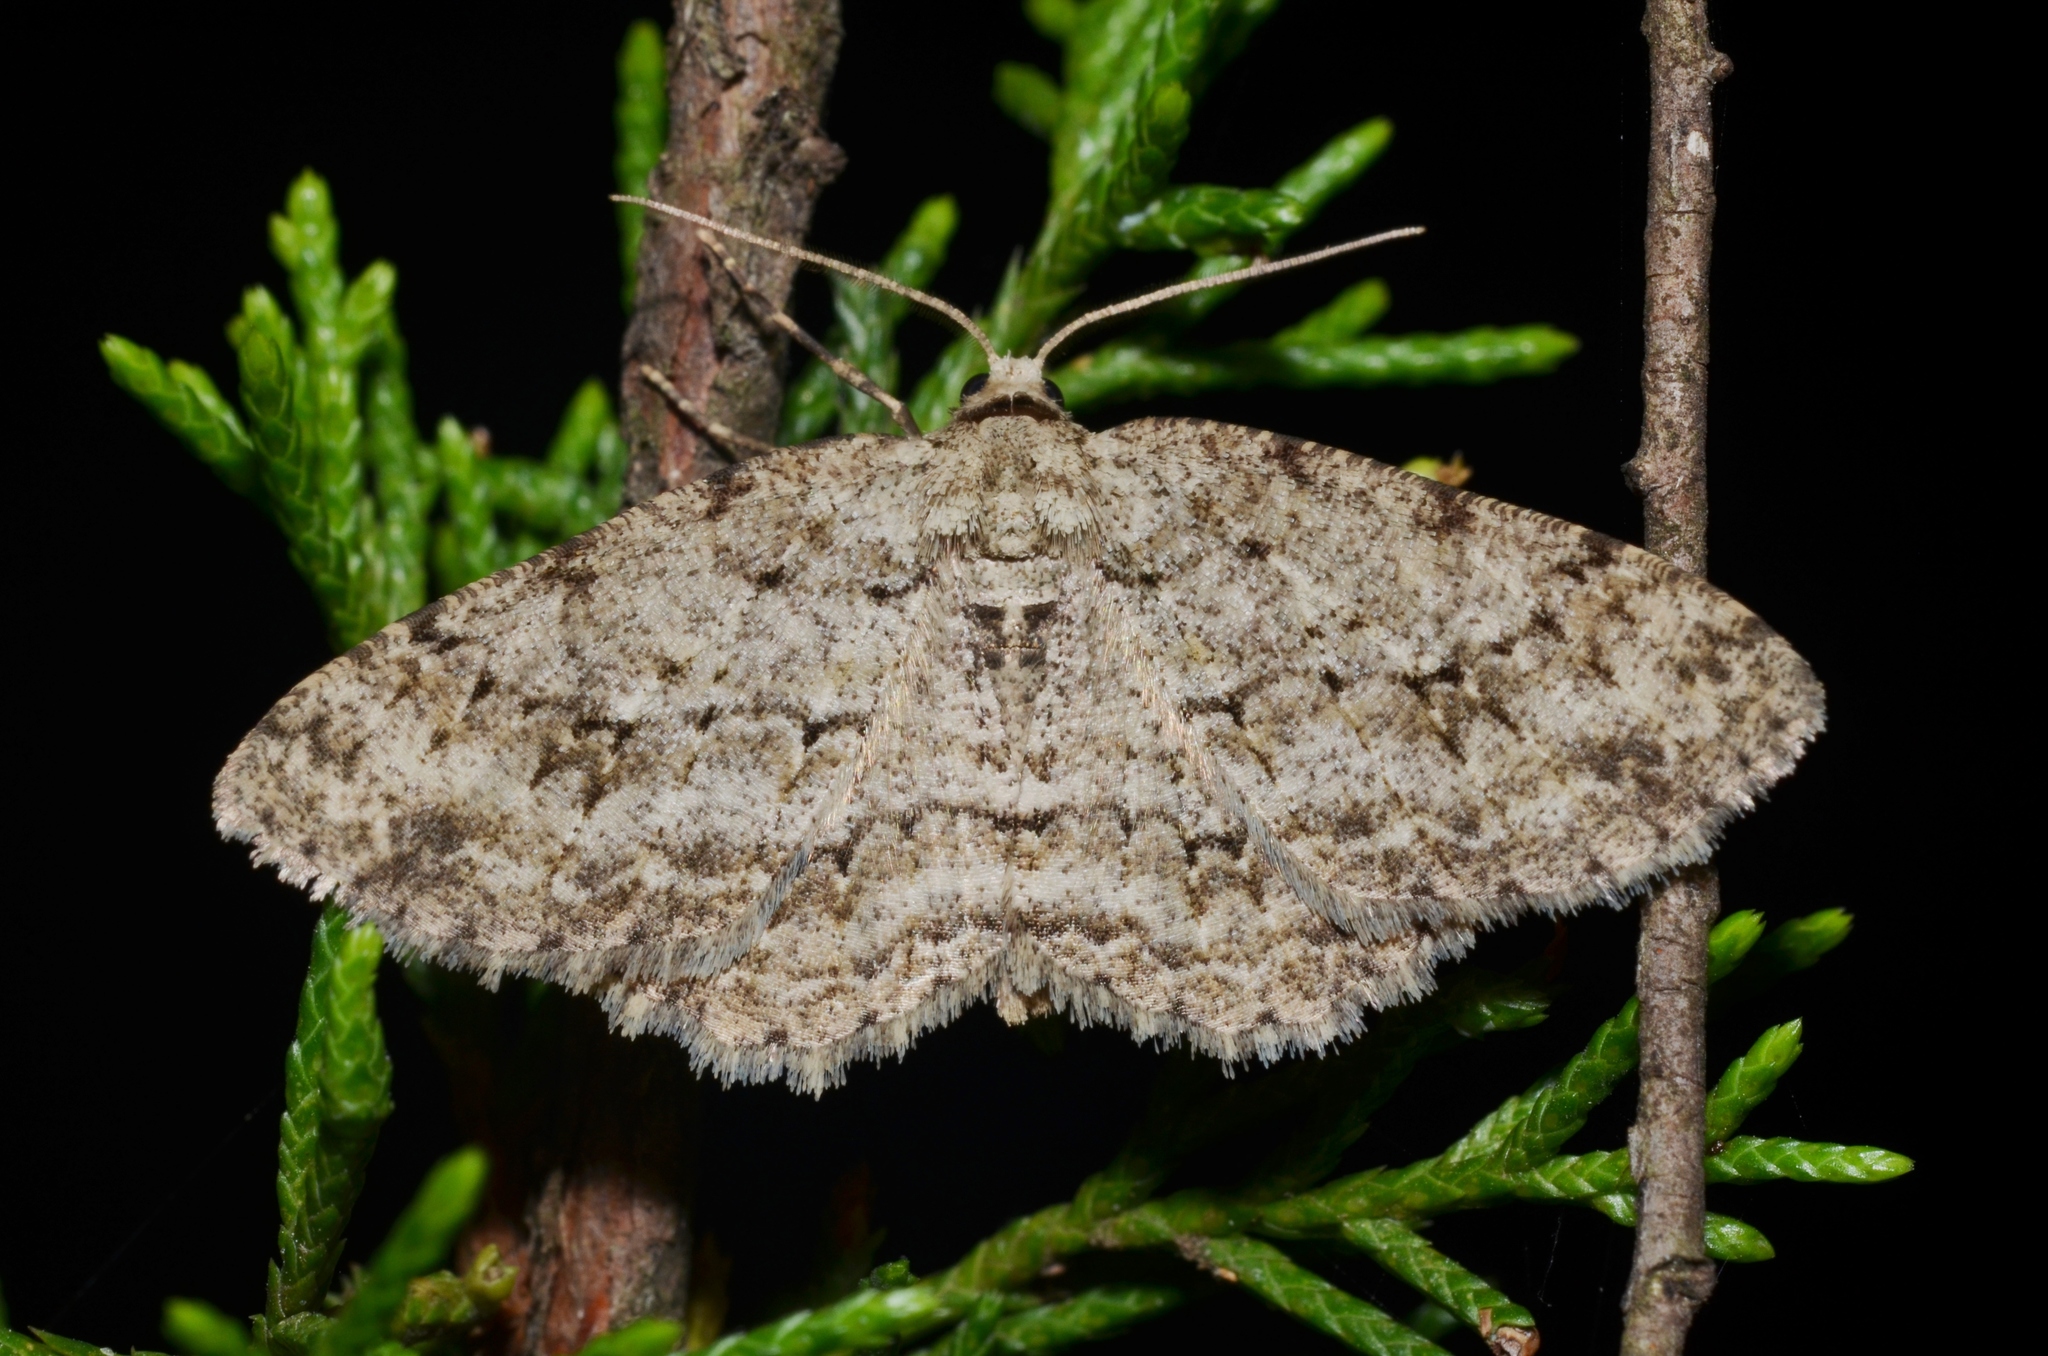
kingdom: Animalia
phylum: Arthropoda
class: Insecta
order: Lepidoptera
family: Geometridae
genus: Ectropis
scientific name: Ectropis crepuscularia
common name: Engrailed
